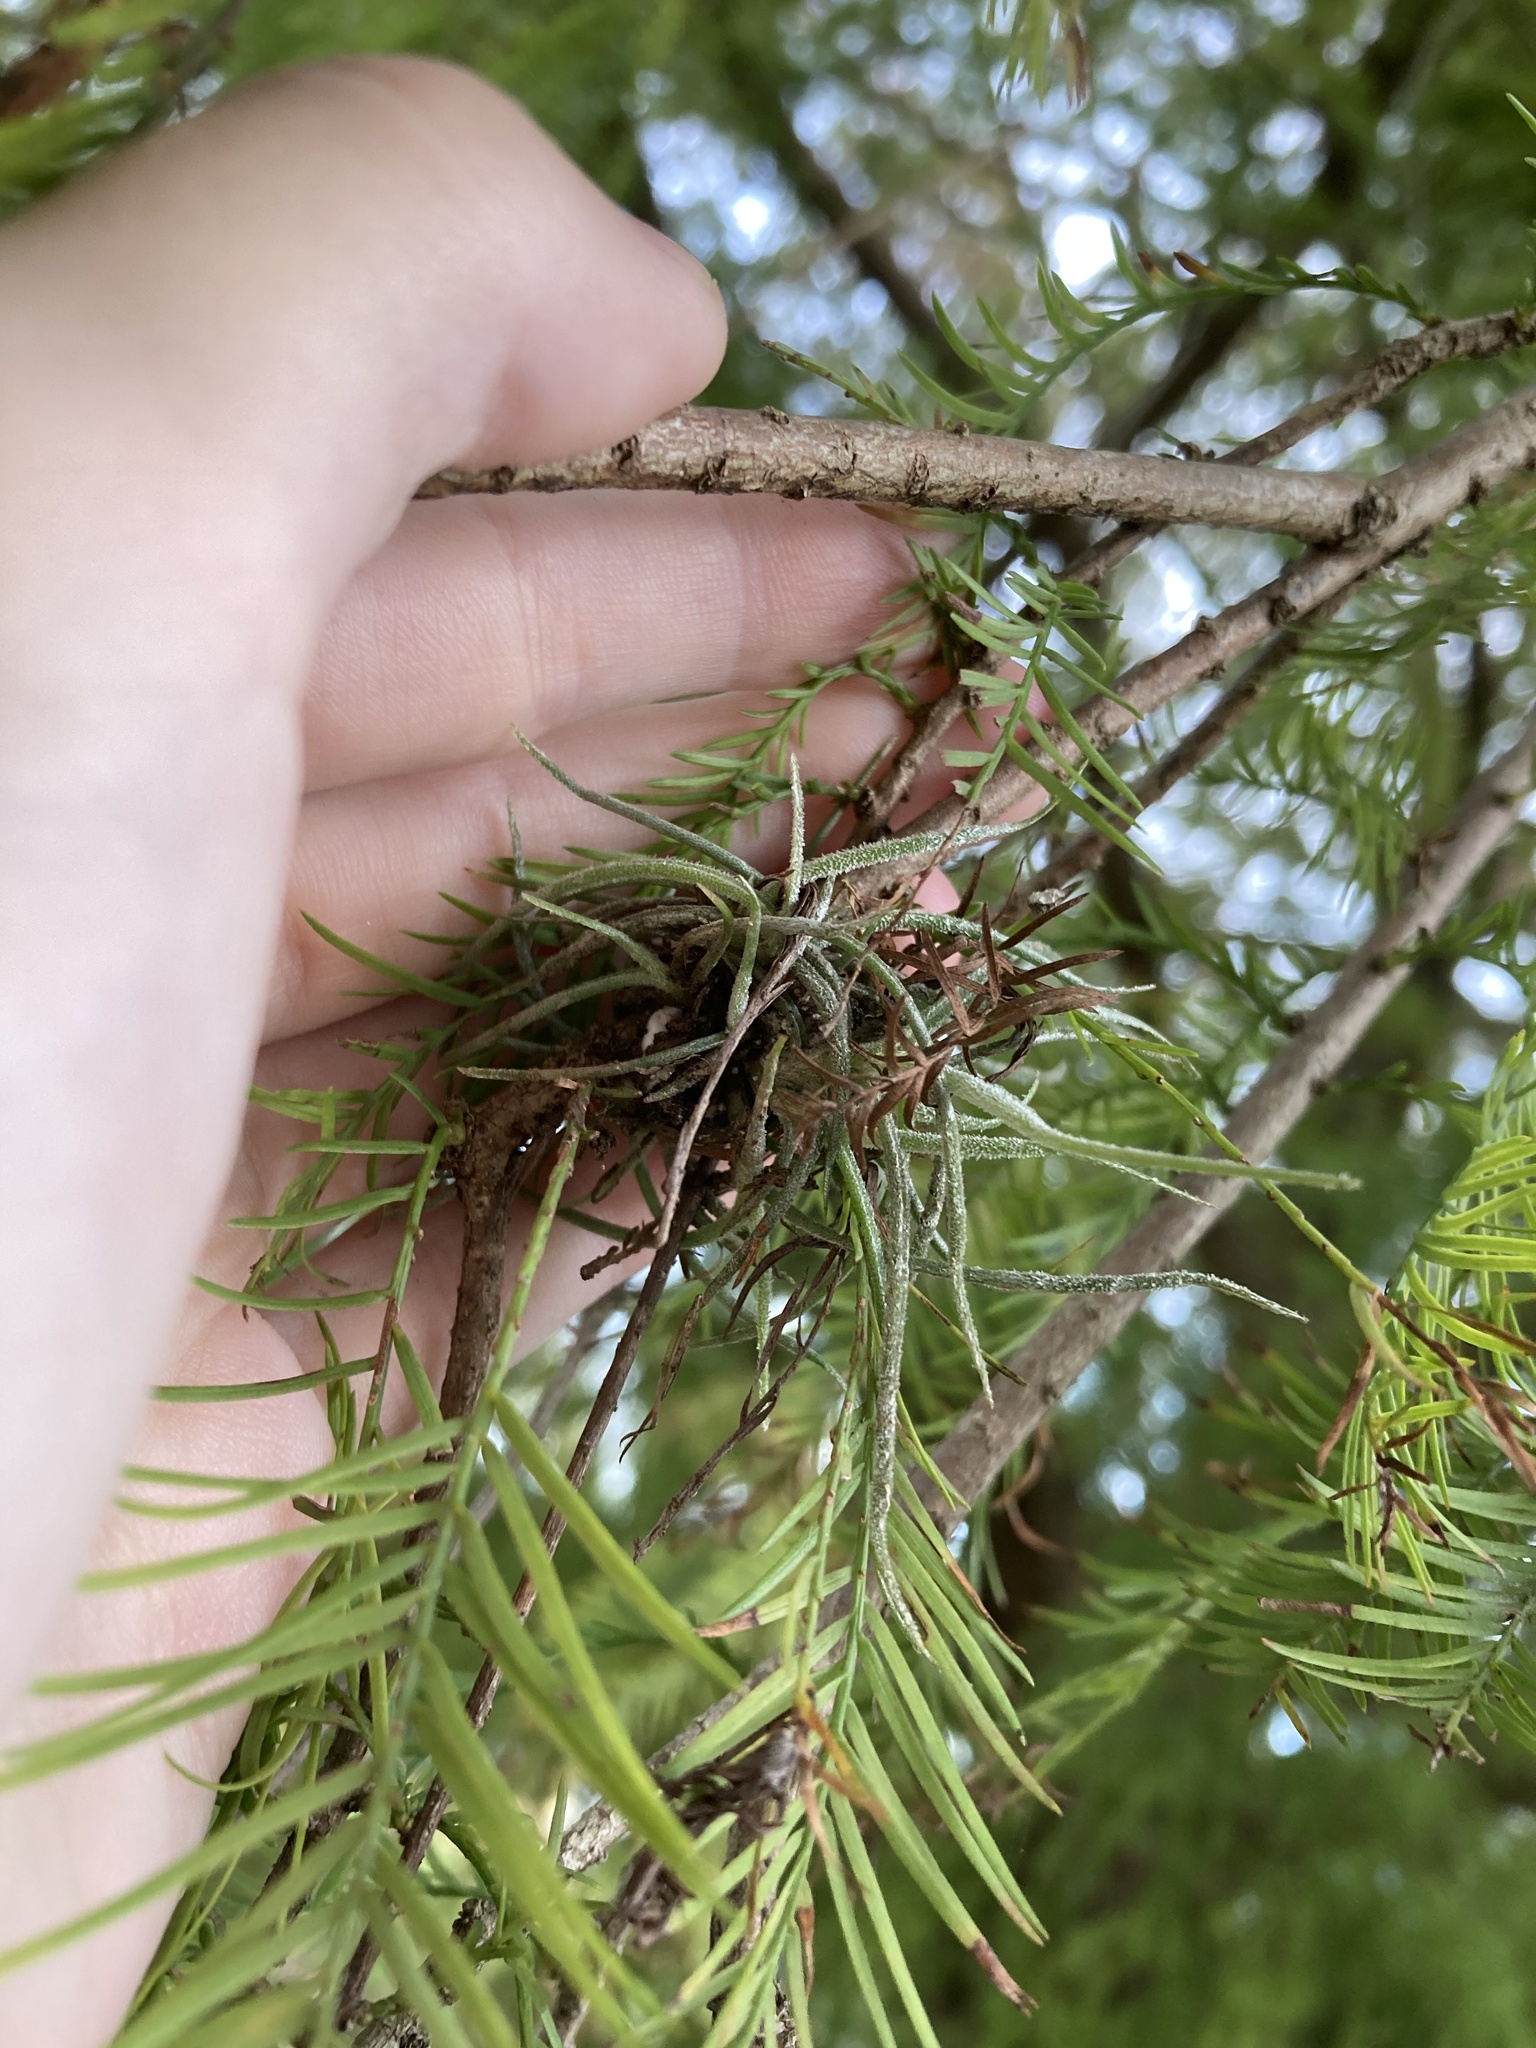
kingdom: Plantae
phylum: Tracheophyta
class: Liliopsida
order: Poales
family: Bromeliaceae
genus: Tillandsia
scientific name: Tillandsia recurvata
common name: Small ballmoss
